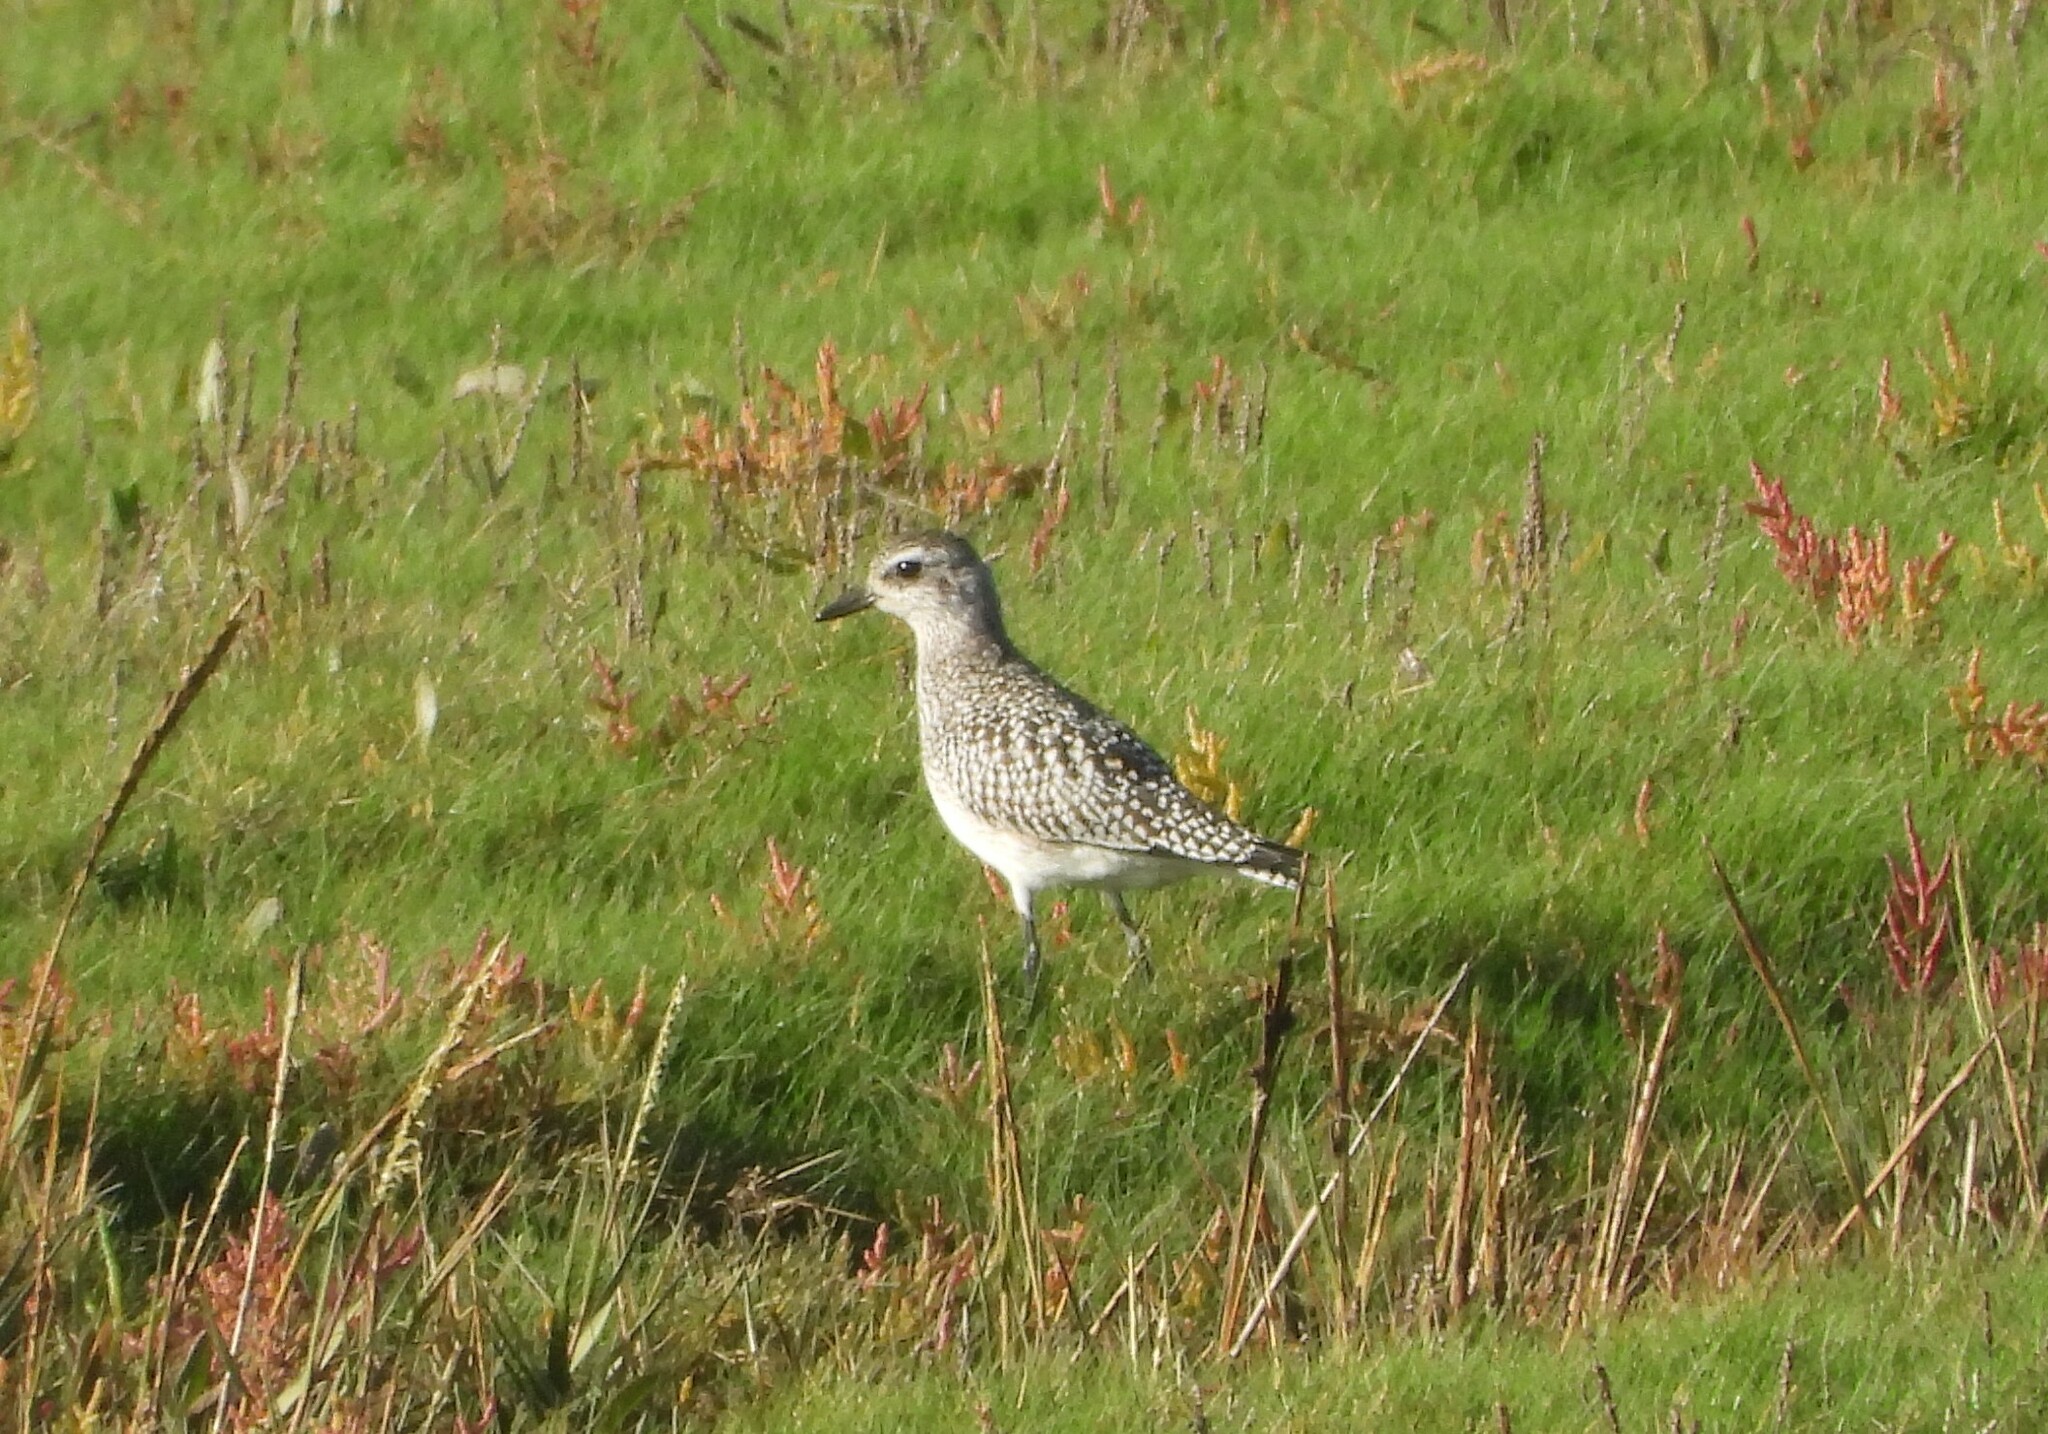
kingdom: Animalia
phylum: Chordata
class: Aves
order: Charadriiformes
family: Charadriidae
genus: Pluvialis
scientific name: Pluvialis squatarola
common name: Grey plover
